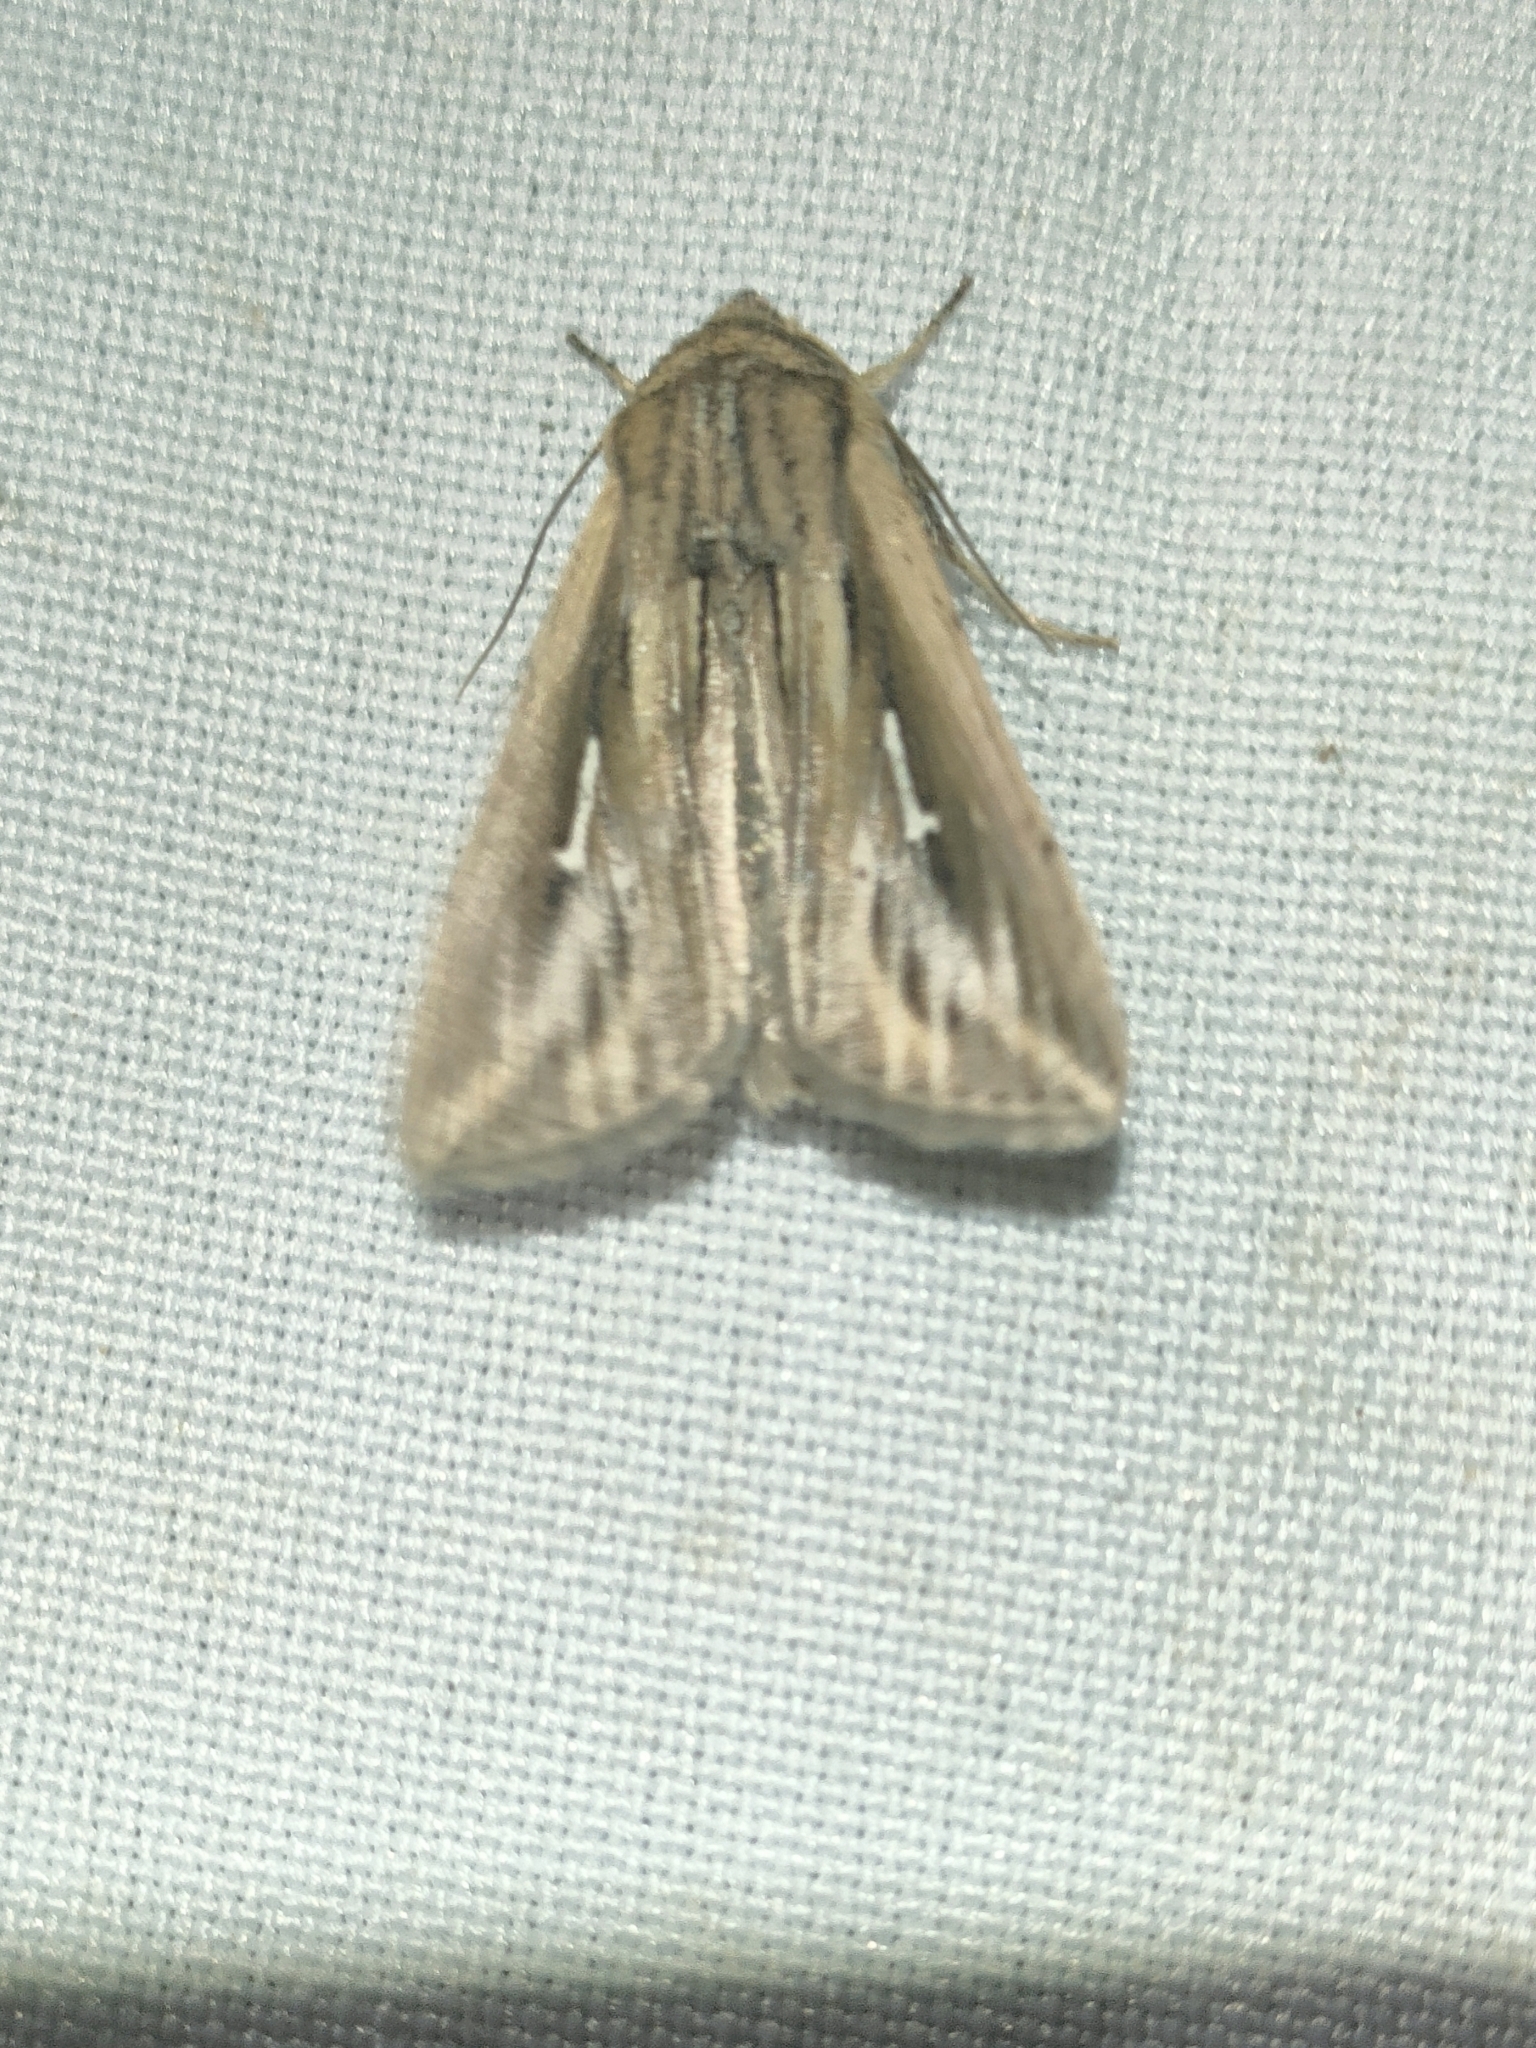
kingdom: Animalia
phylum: Arthropoda
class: Insecta
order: Lepidoptera
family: Noctuidae
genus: Mythimna
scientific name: Mythimna l-album
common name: L-album wainscot
